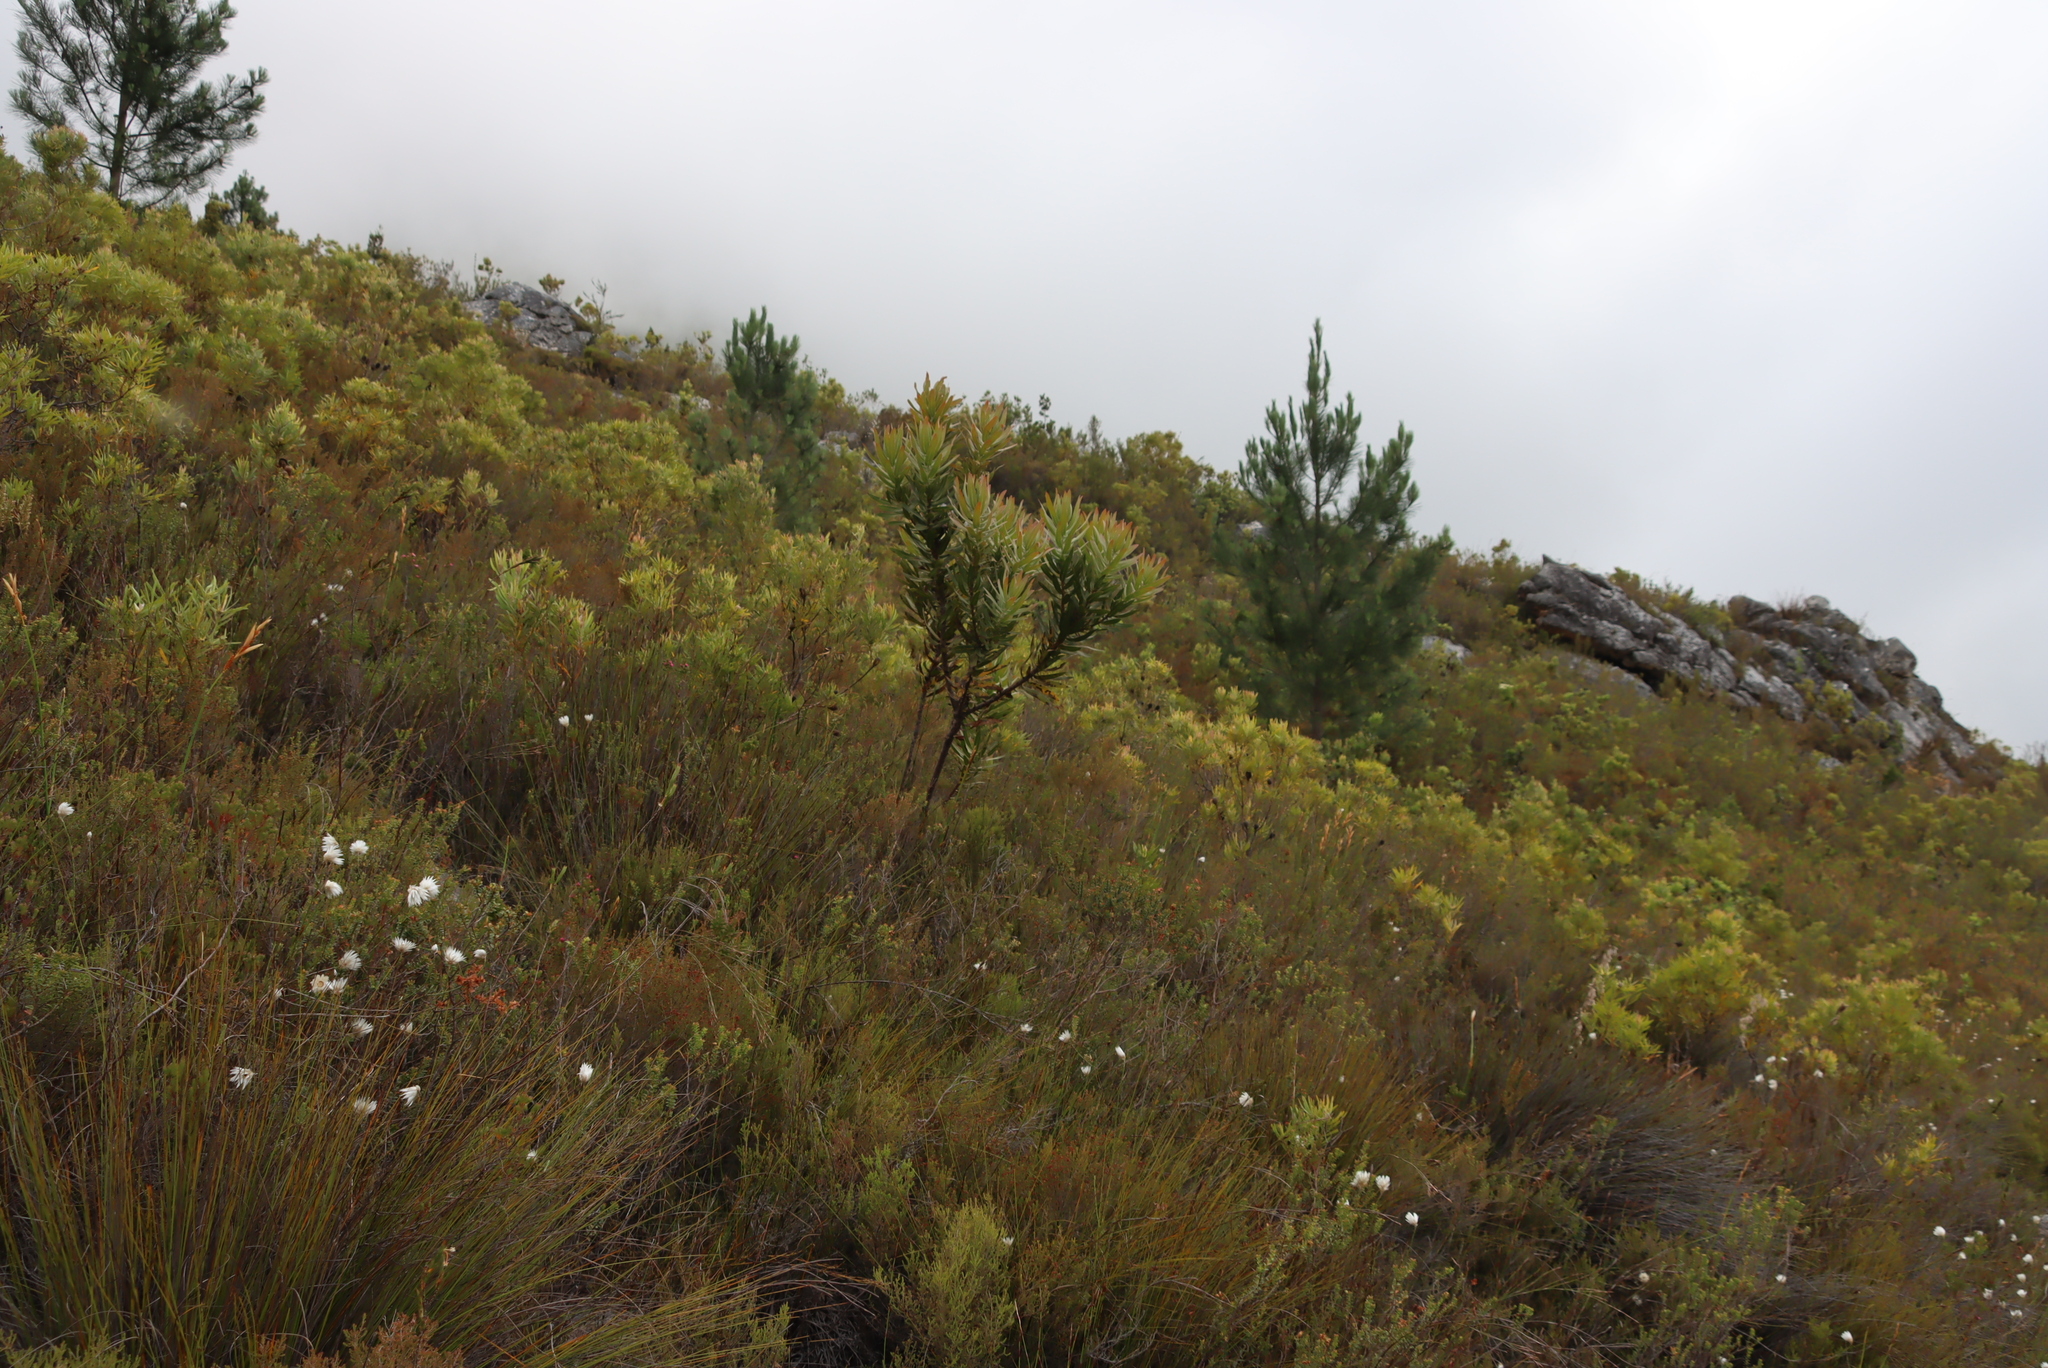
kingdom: Plantae
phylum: Tracheophyta
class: Pinopsida
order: Pinales
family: Pinaceae
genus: Pinus
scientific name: Pinus radiata
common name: Monterey pine
